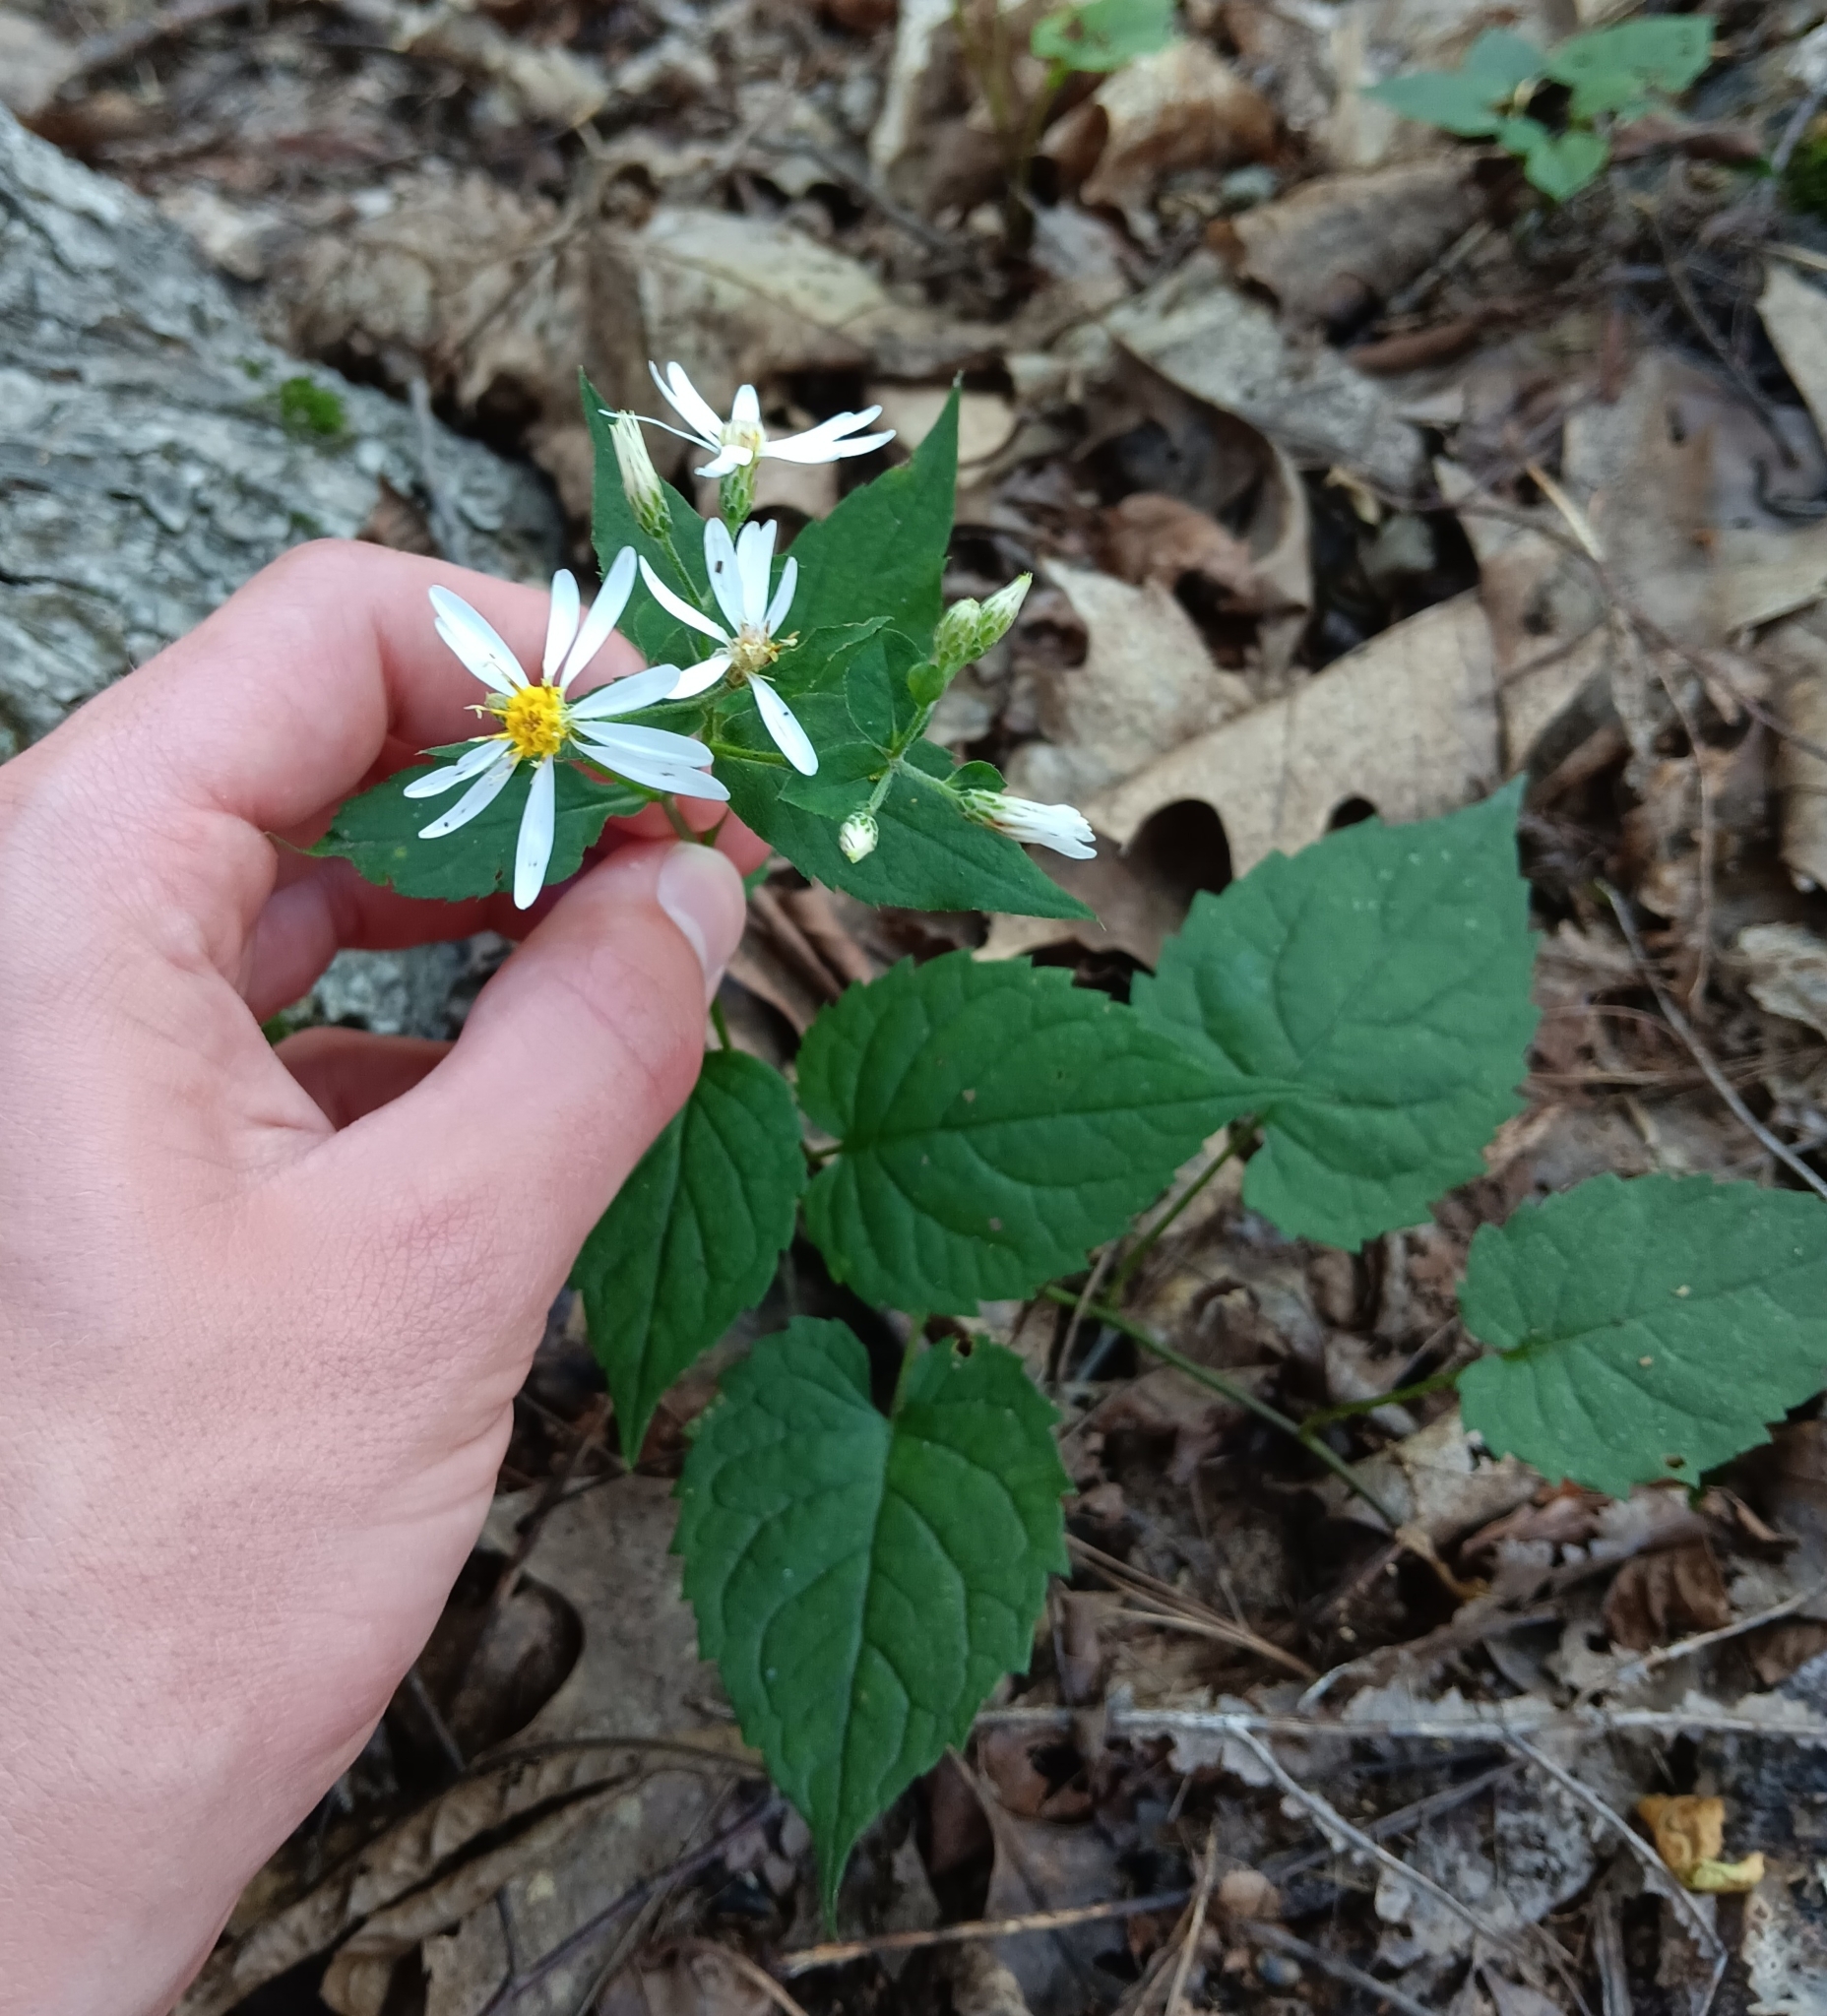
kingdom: Plantae
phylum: Tracheophyta
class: Magnoliopsida
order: Asterales
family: Asteraceae
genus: Eurybia
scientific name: Eurybia divaricata
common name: White wood aster
